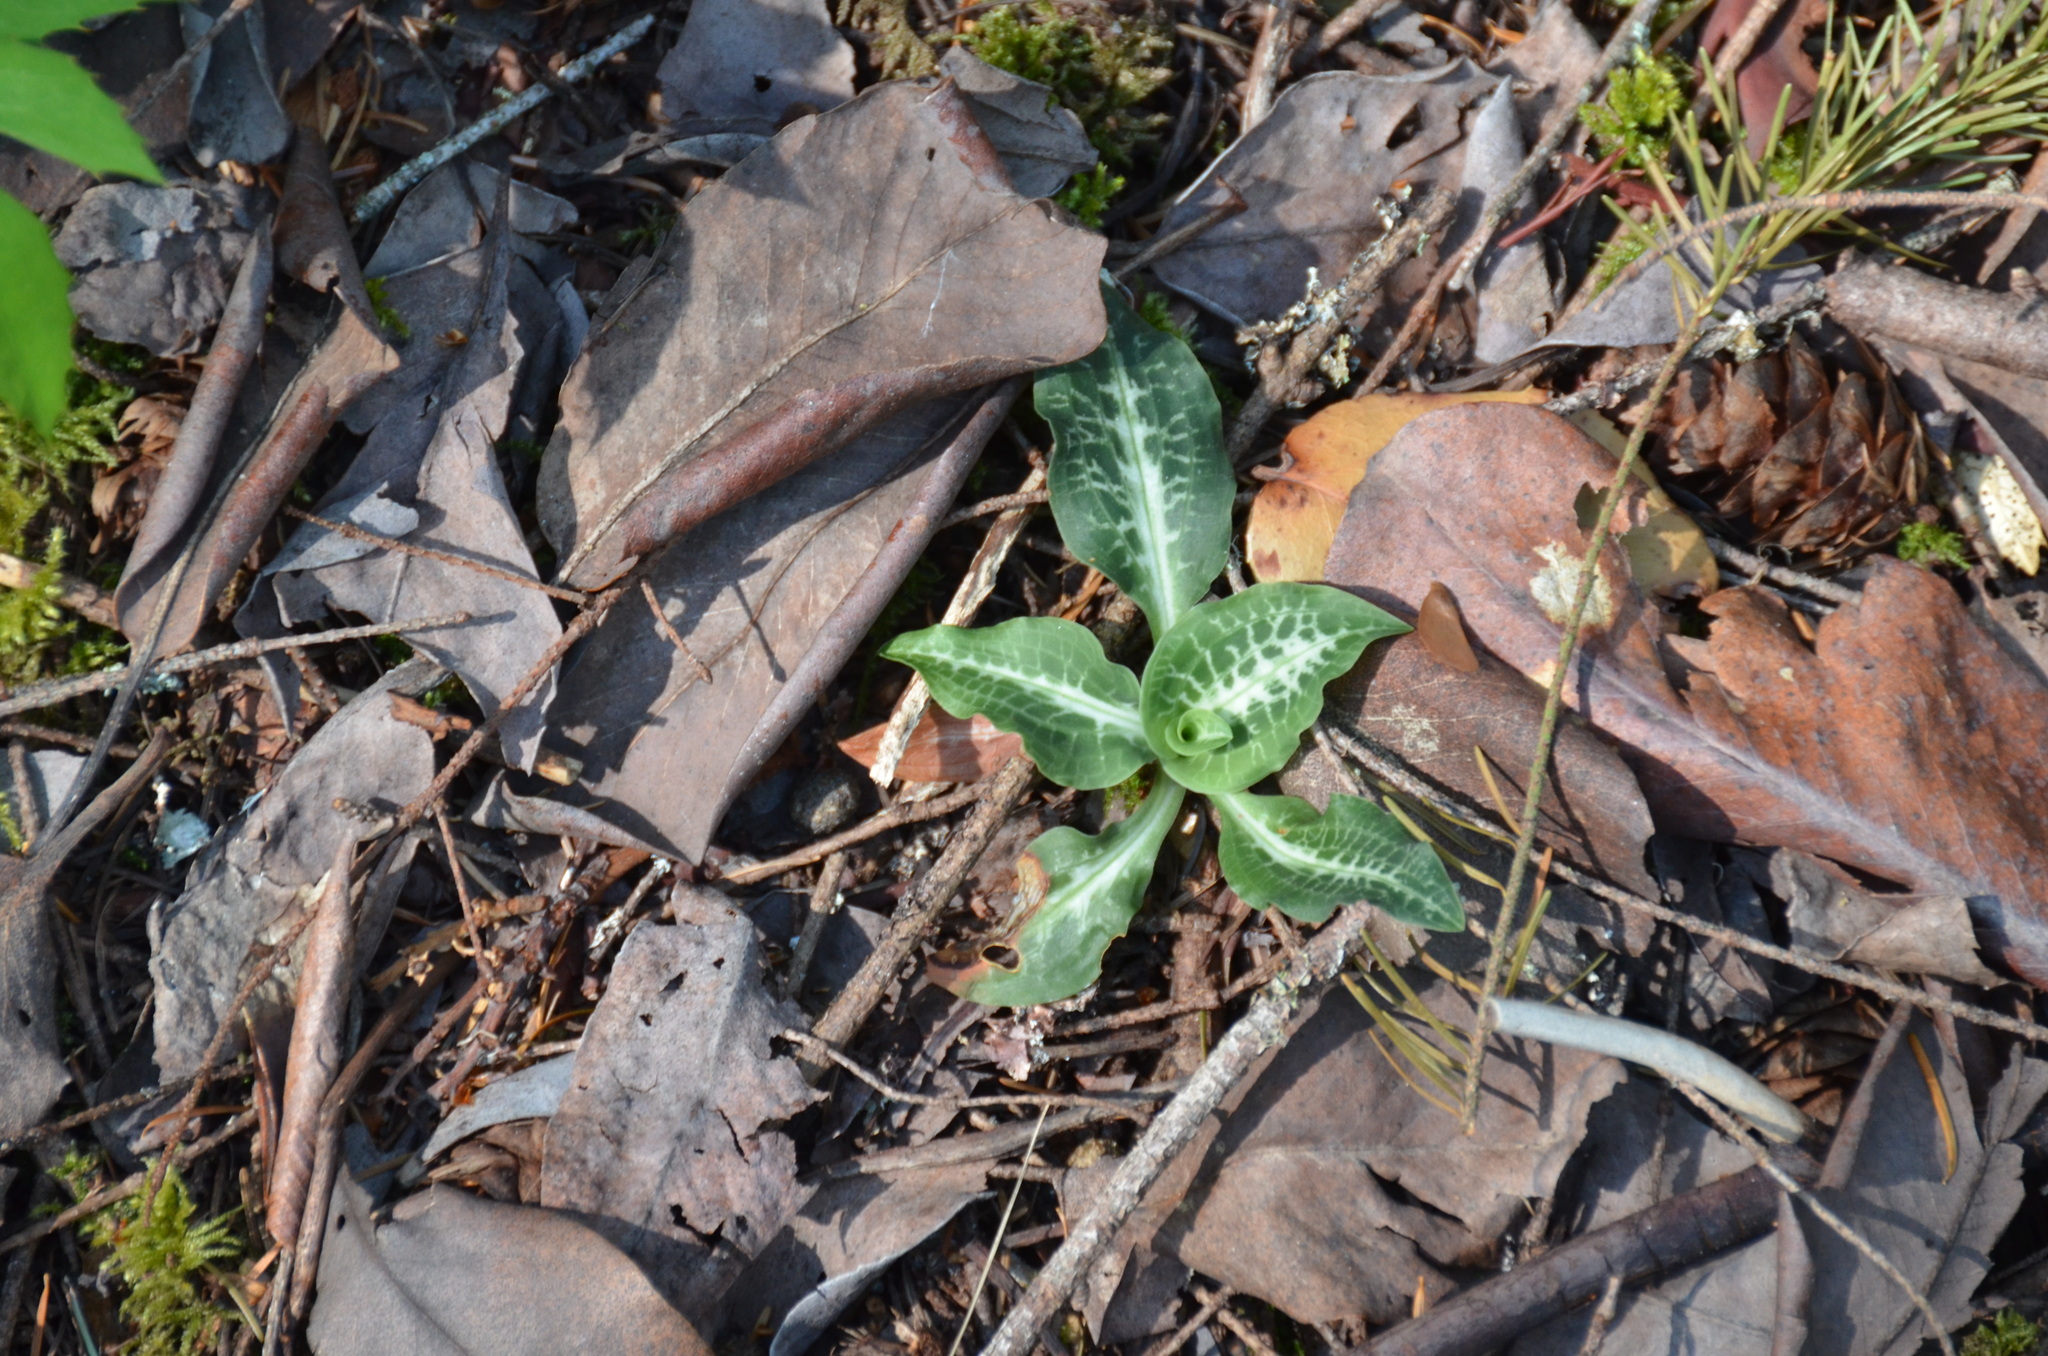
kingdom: Plantae
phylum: Tracheophyta
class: Liliopsida
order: Asparagales
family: Orchidaceae
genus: Goodyera
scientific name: Goodyera oblongifolia
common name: Giant rattlesnake-plantain
